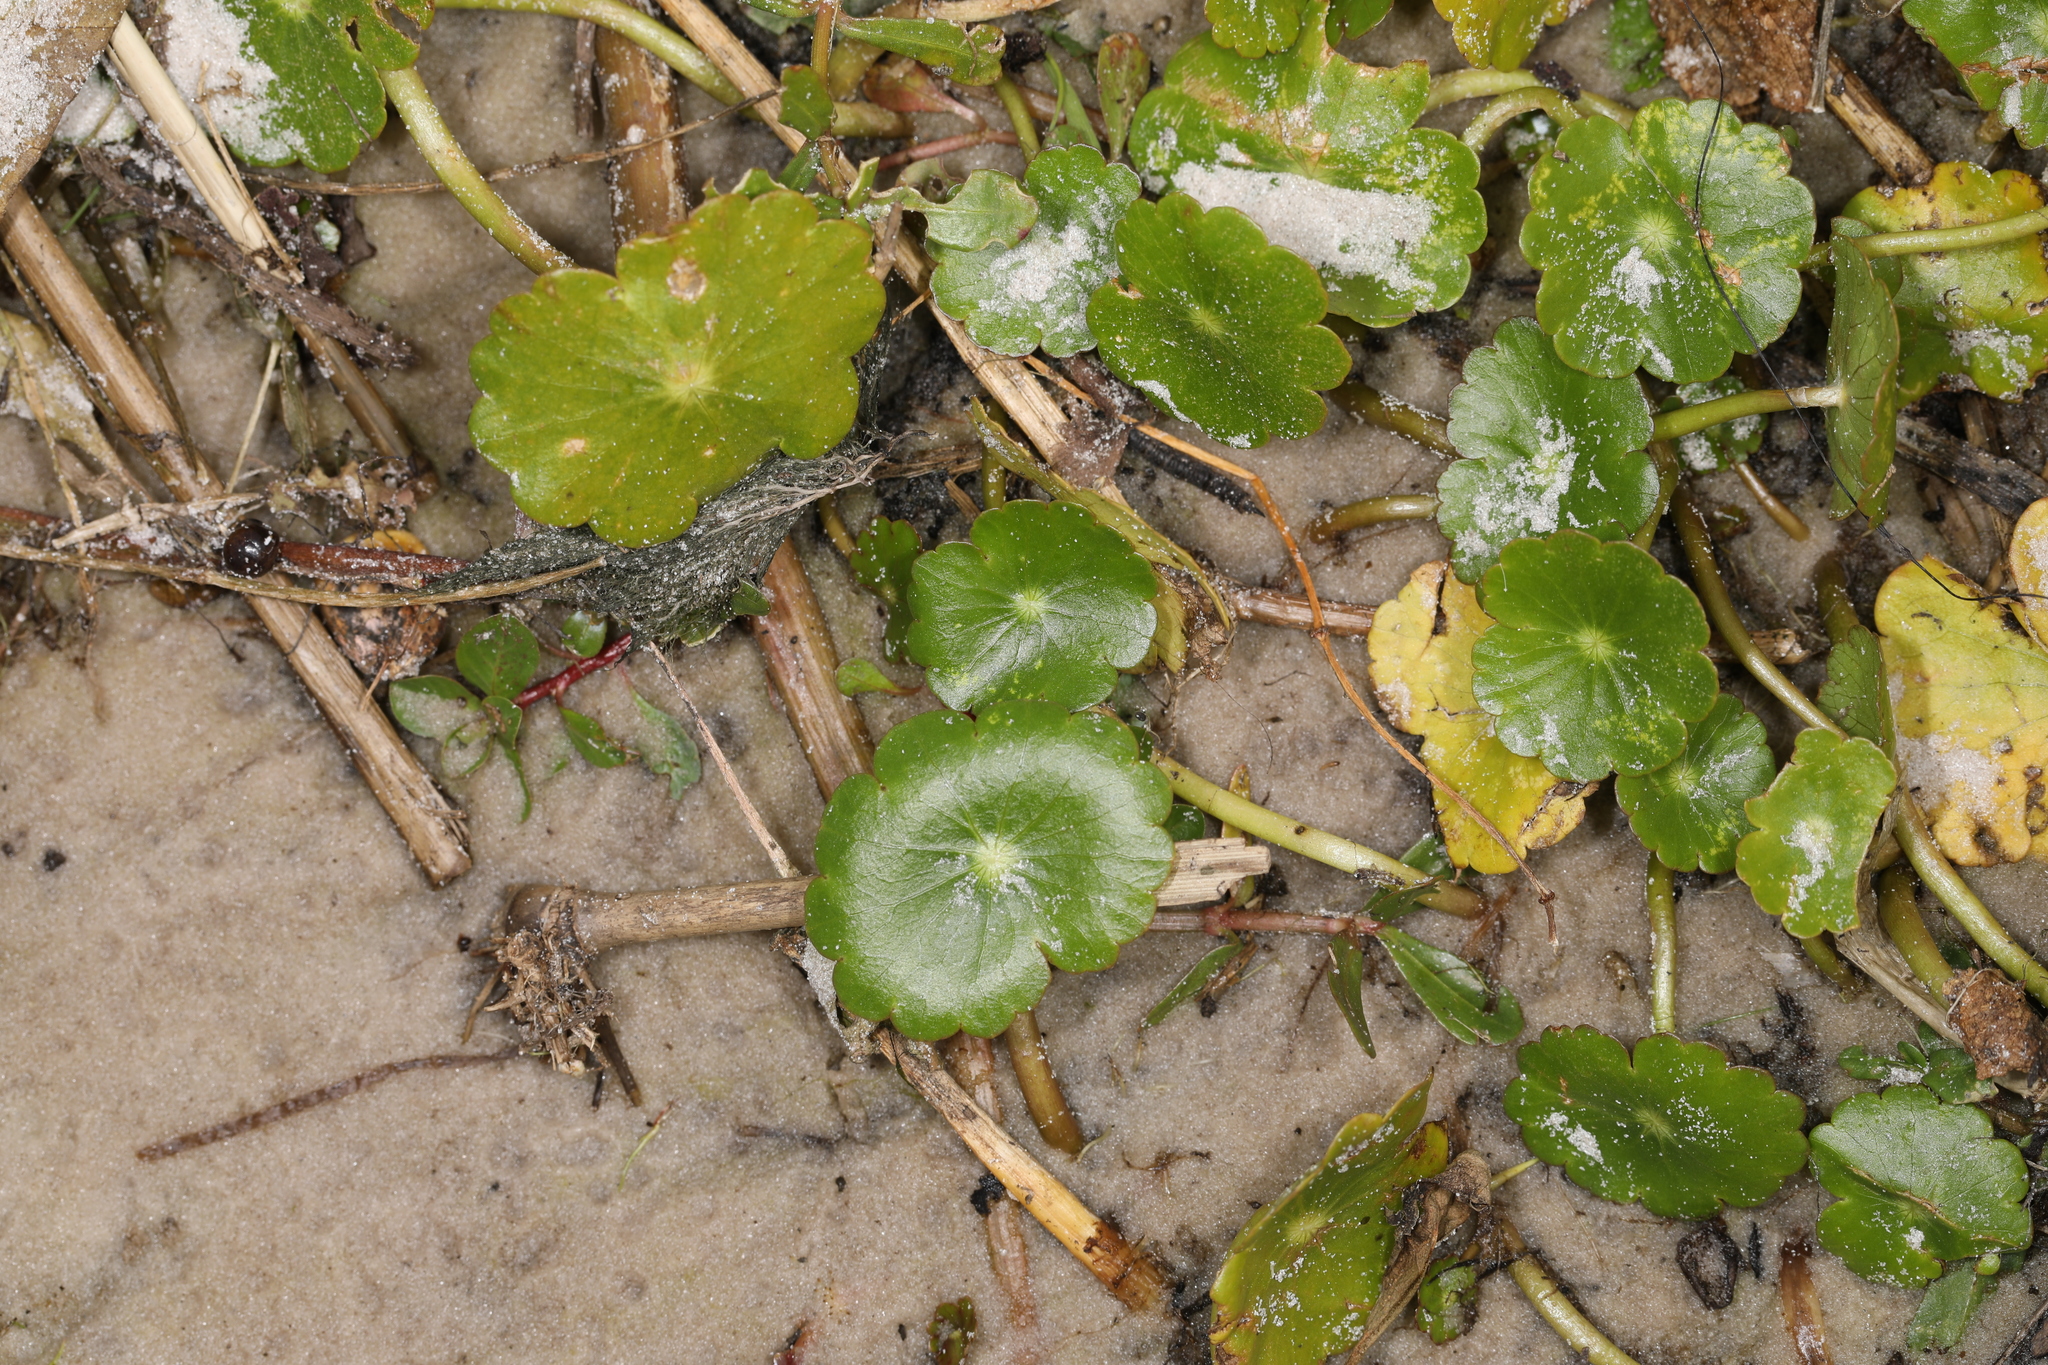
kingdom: Plantae
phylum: Tracheophyta
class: Magnoliopsida
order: Apiales
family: Araliaceae
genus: Hydrocotyle
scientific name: Hydrocotyle umbellata
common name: Water pennywort
